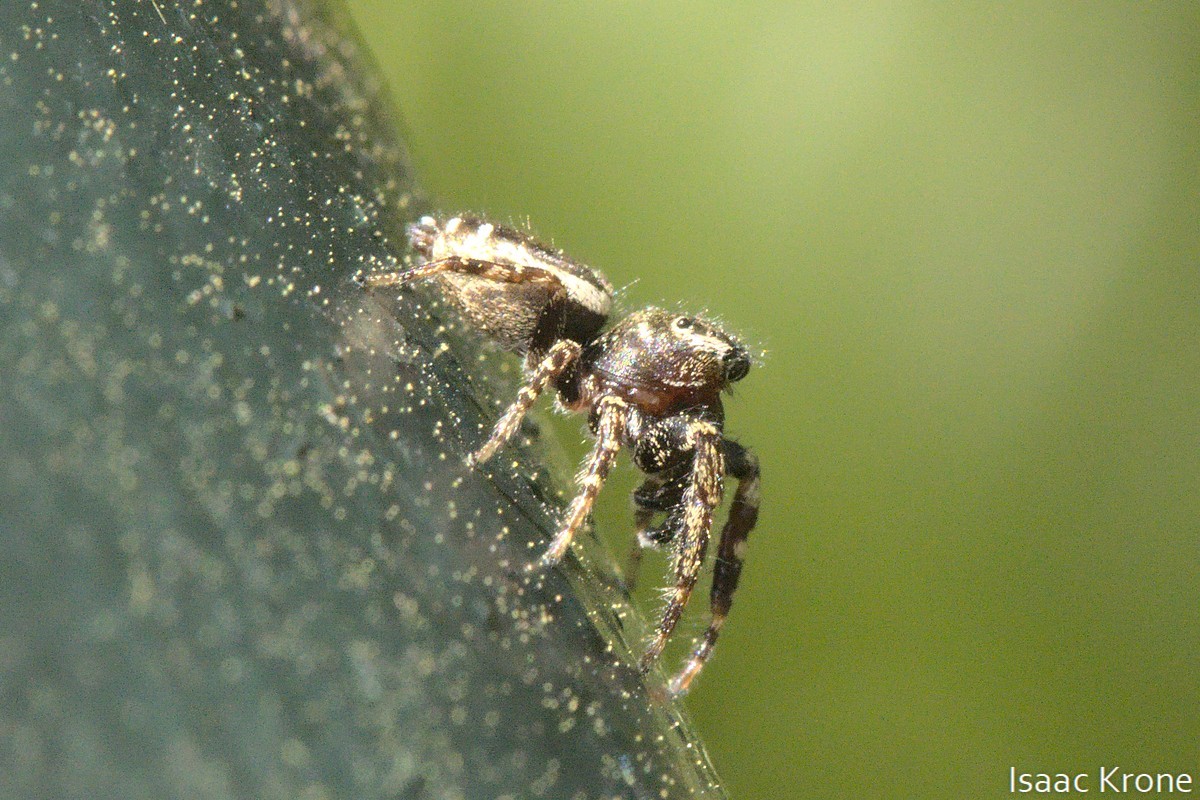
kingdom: Animalia
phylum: Arthropoda
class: Arachnida
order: Araneae
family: Salticidae
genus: Pelegrina
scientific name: Pelegrina aeneola
